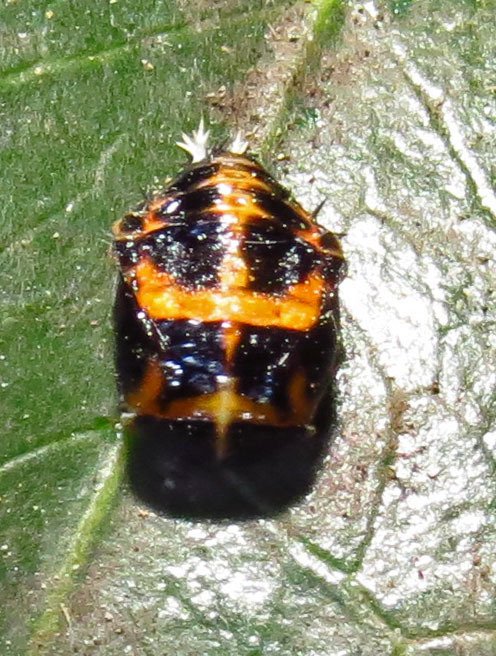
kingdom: Animalia
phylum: Arthropoda
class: Insecta
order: Coleoptera
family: Coccinellidae
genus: Harmonia
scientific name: Harmonia axyridis
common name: Harlequin ladybird
